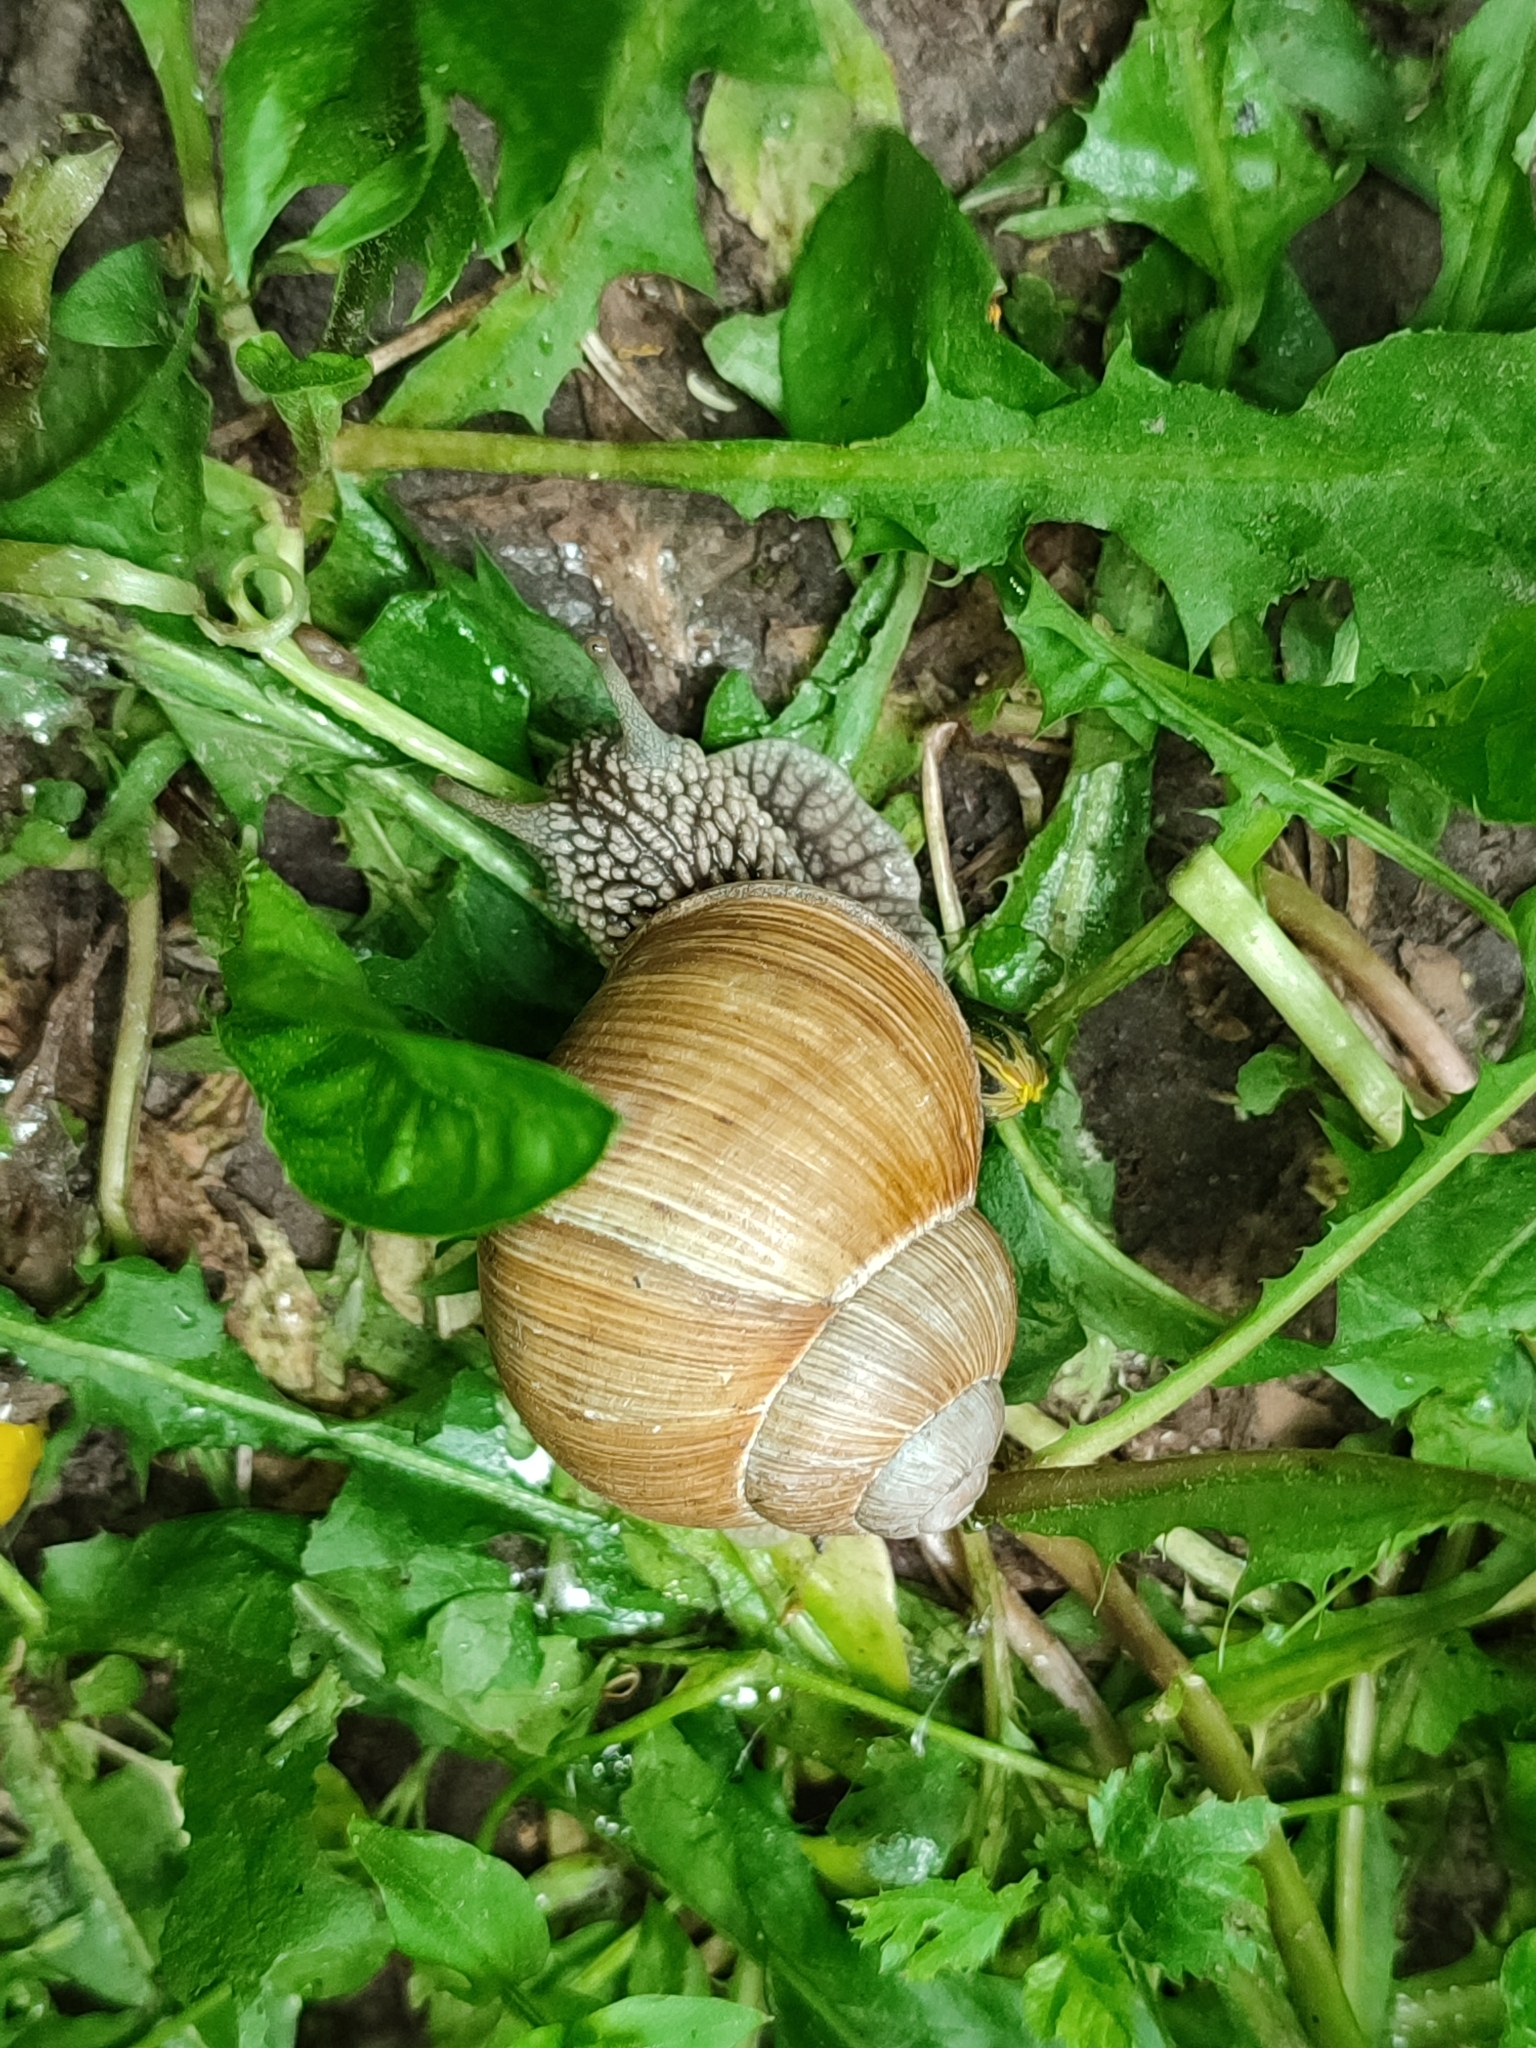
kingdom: Animalia
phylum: Mollusca
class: Gastropoda
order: Stylommatophora
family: Helicidae
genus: Helix
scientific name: Helix pomatia
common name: Roman snail
